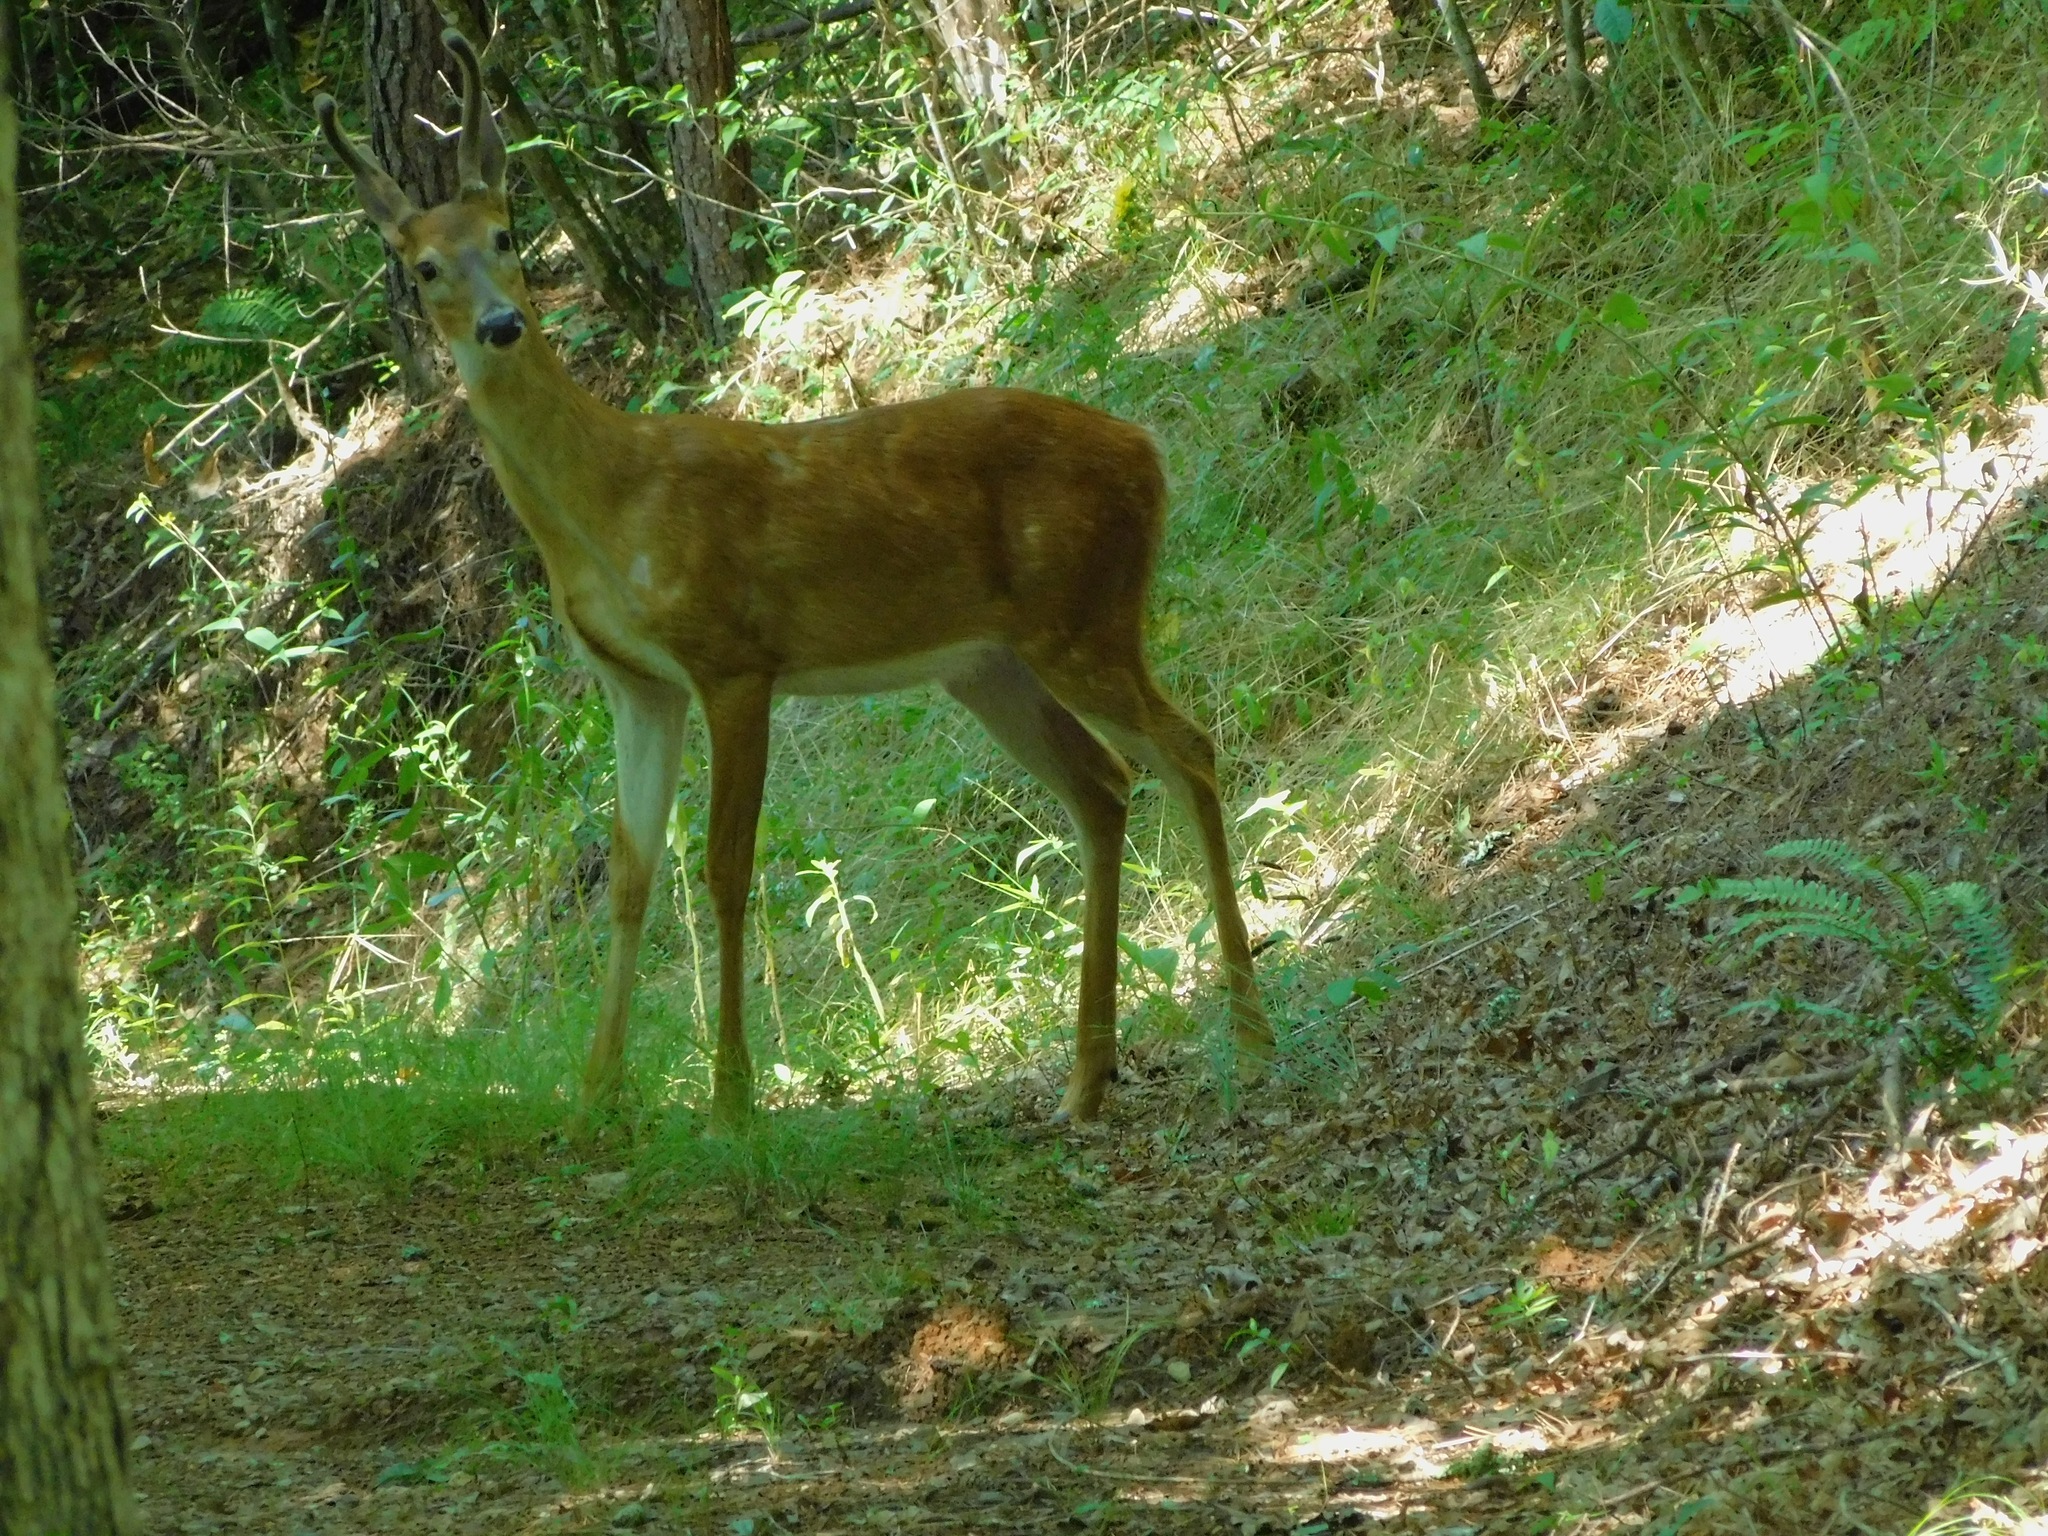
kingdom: Animalia
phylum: Chordata
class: Mammalia
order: Artiodactyla
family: Cervidae
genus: Odocoileus
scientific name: Odocoileus virginianus
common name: White-tailed deer
